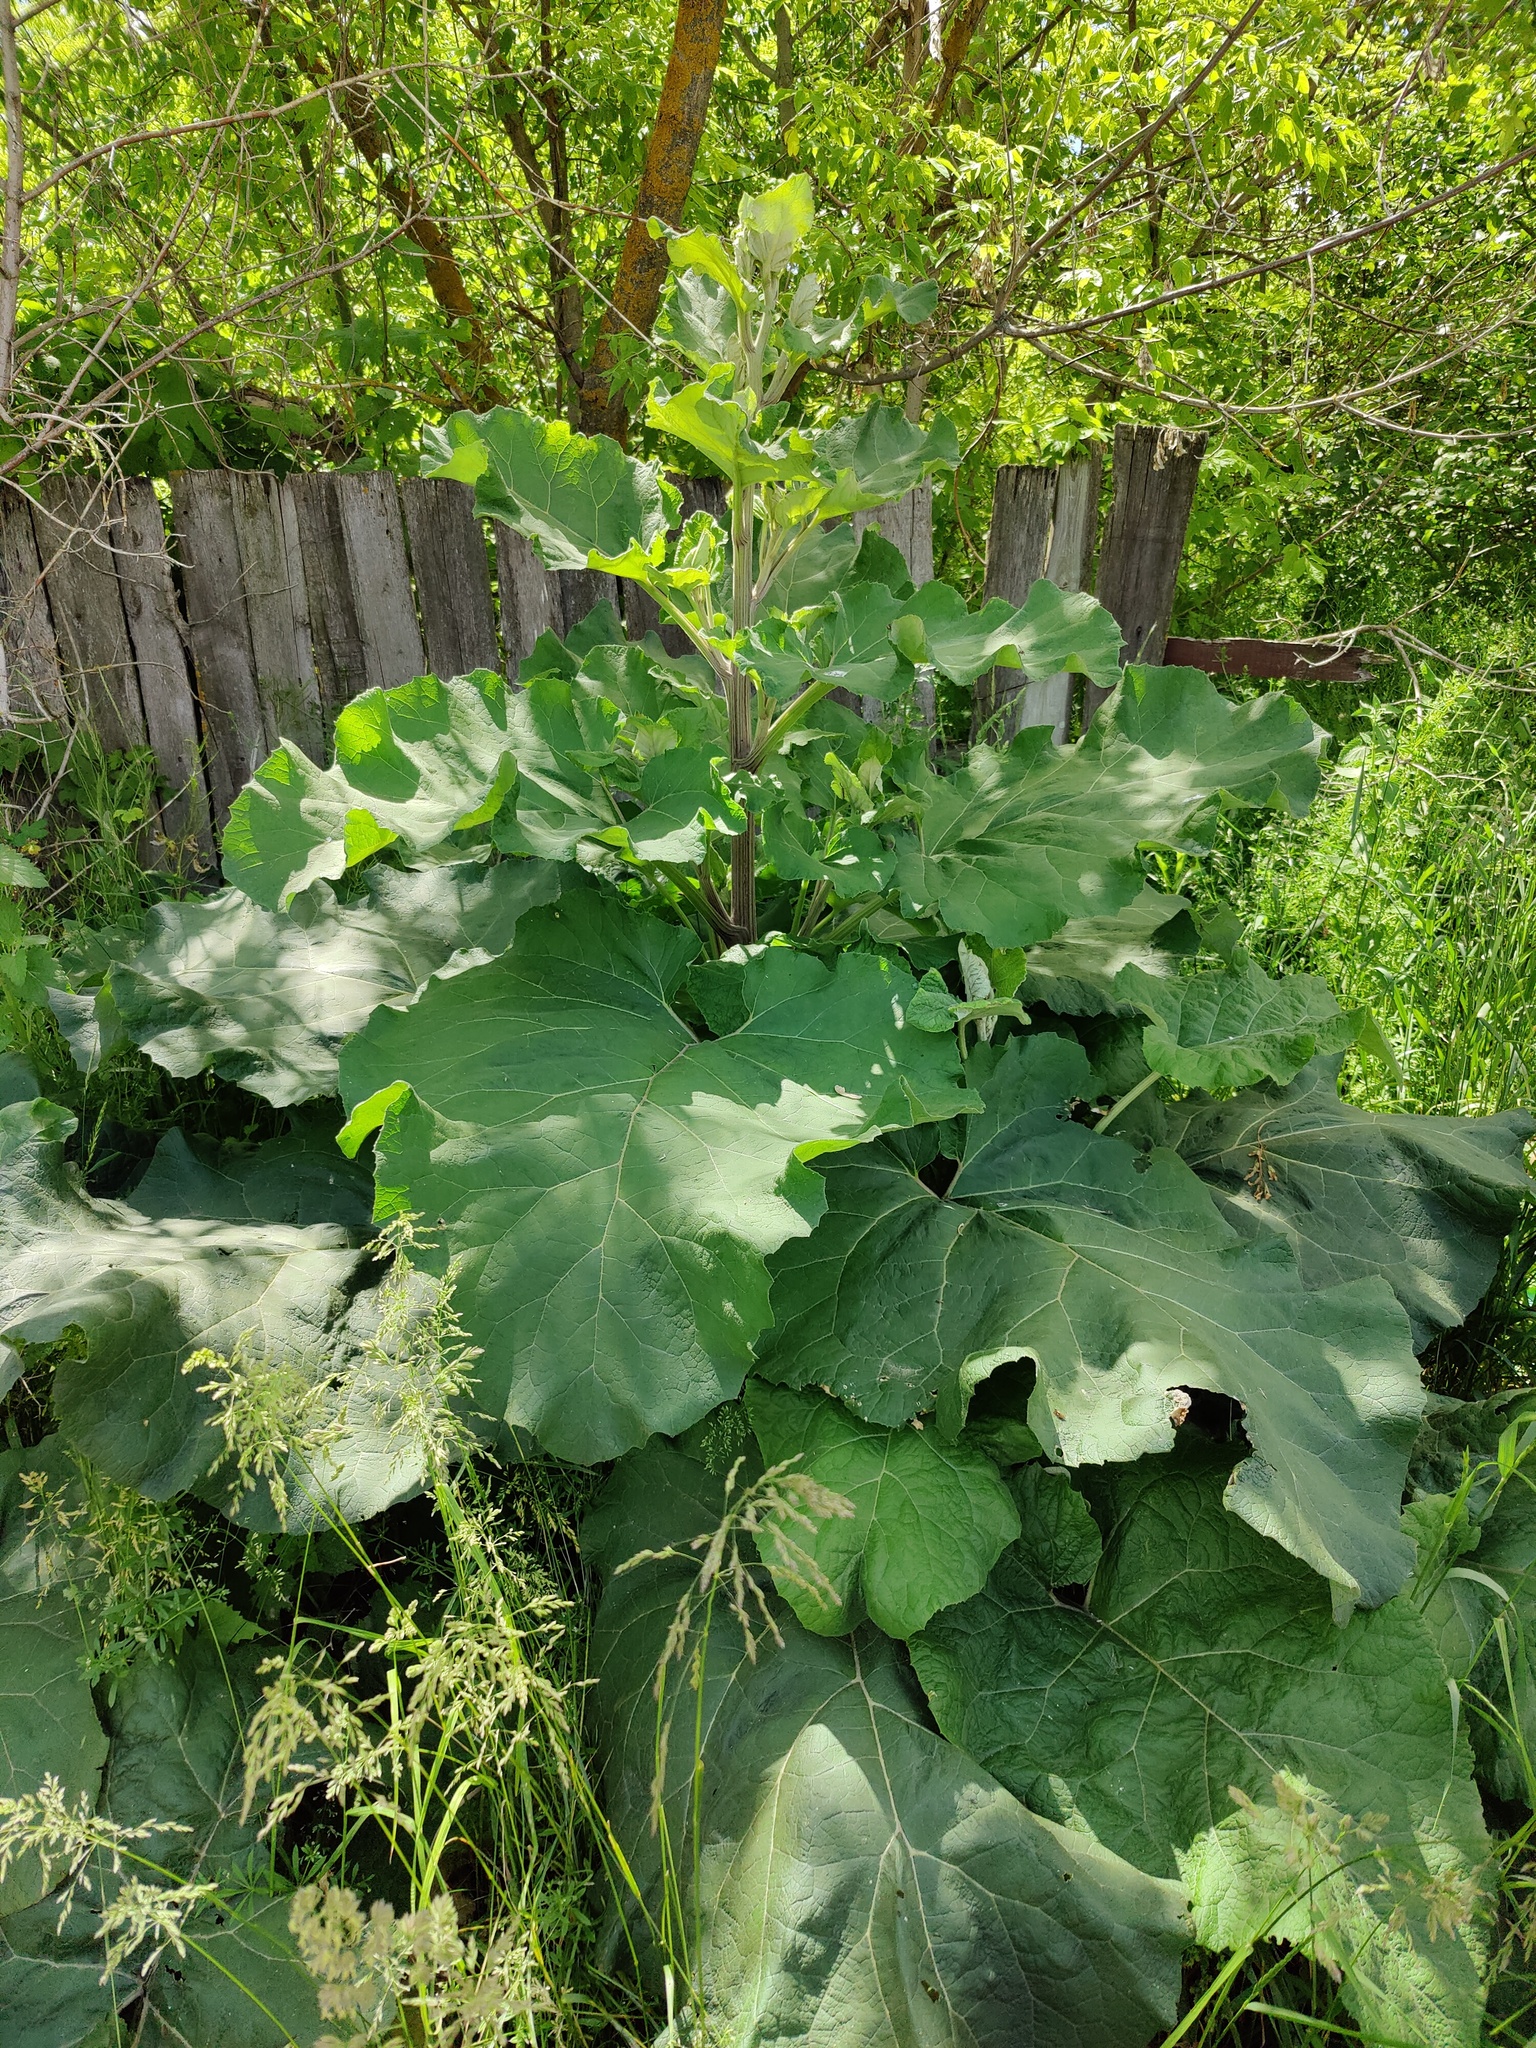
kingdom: Plantae
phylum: Tracheophyta
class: Magnoliopsida
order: Asterales
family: Asteraceae
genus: Arctium
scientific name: Arctium lappa
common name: Greater burdock
